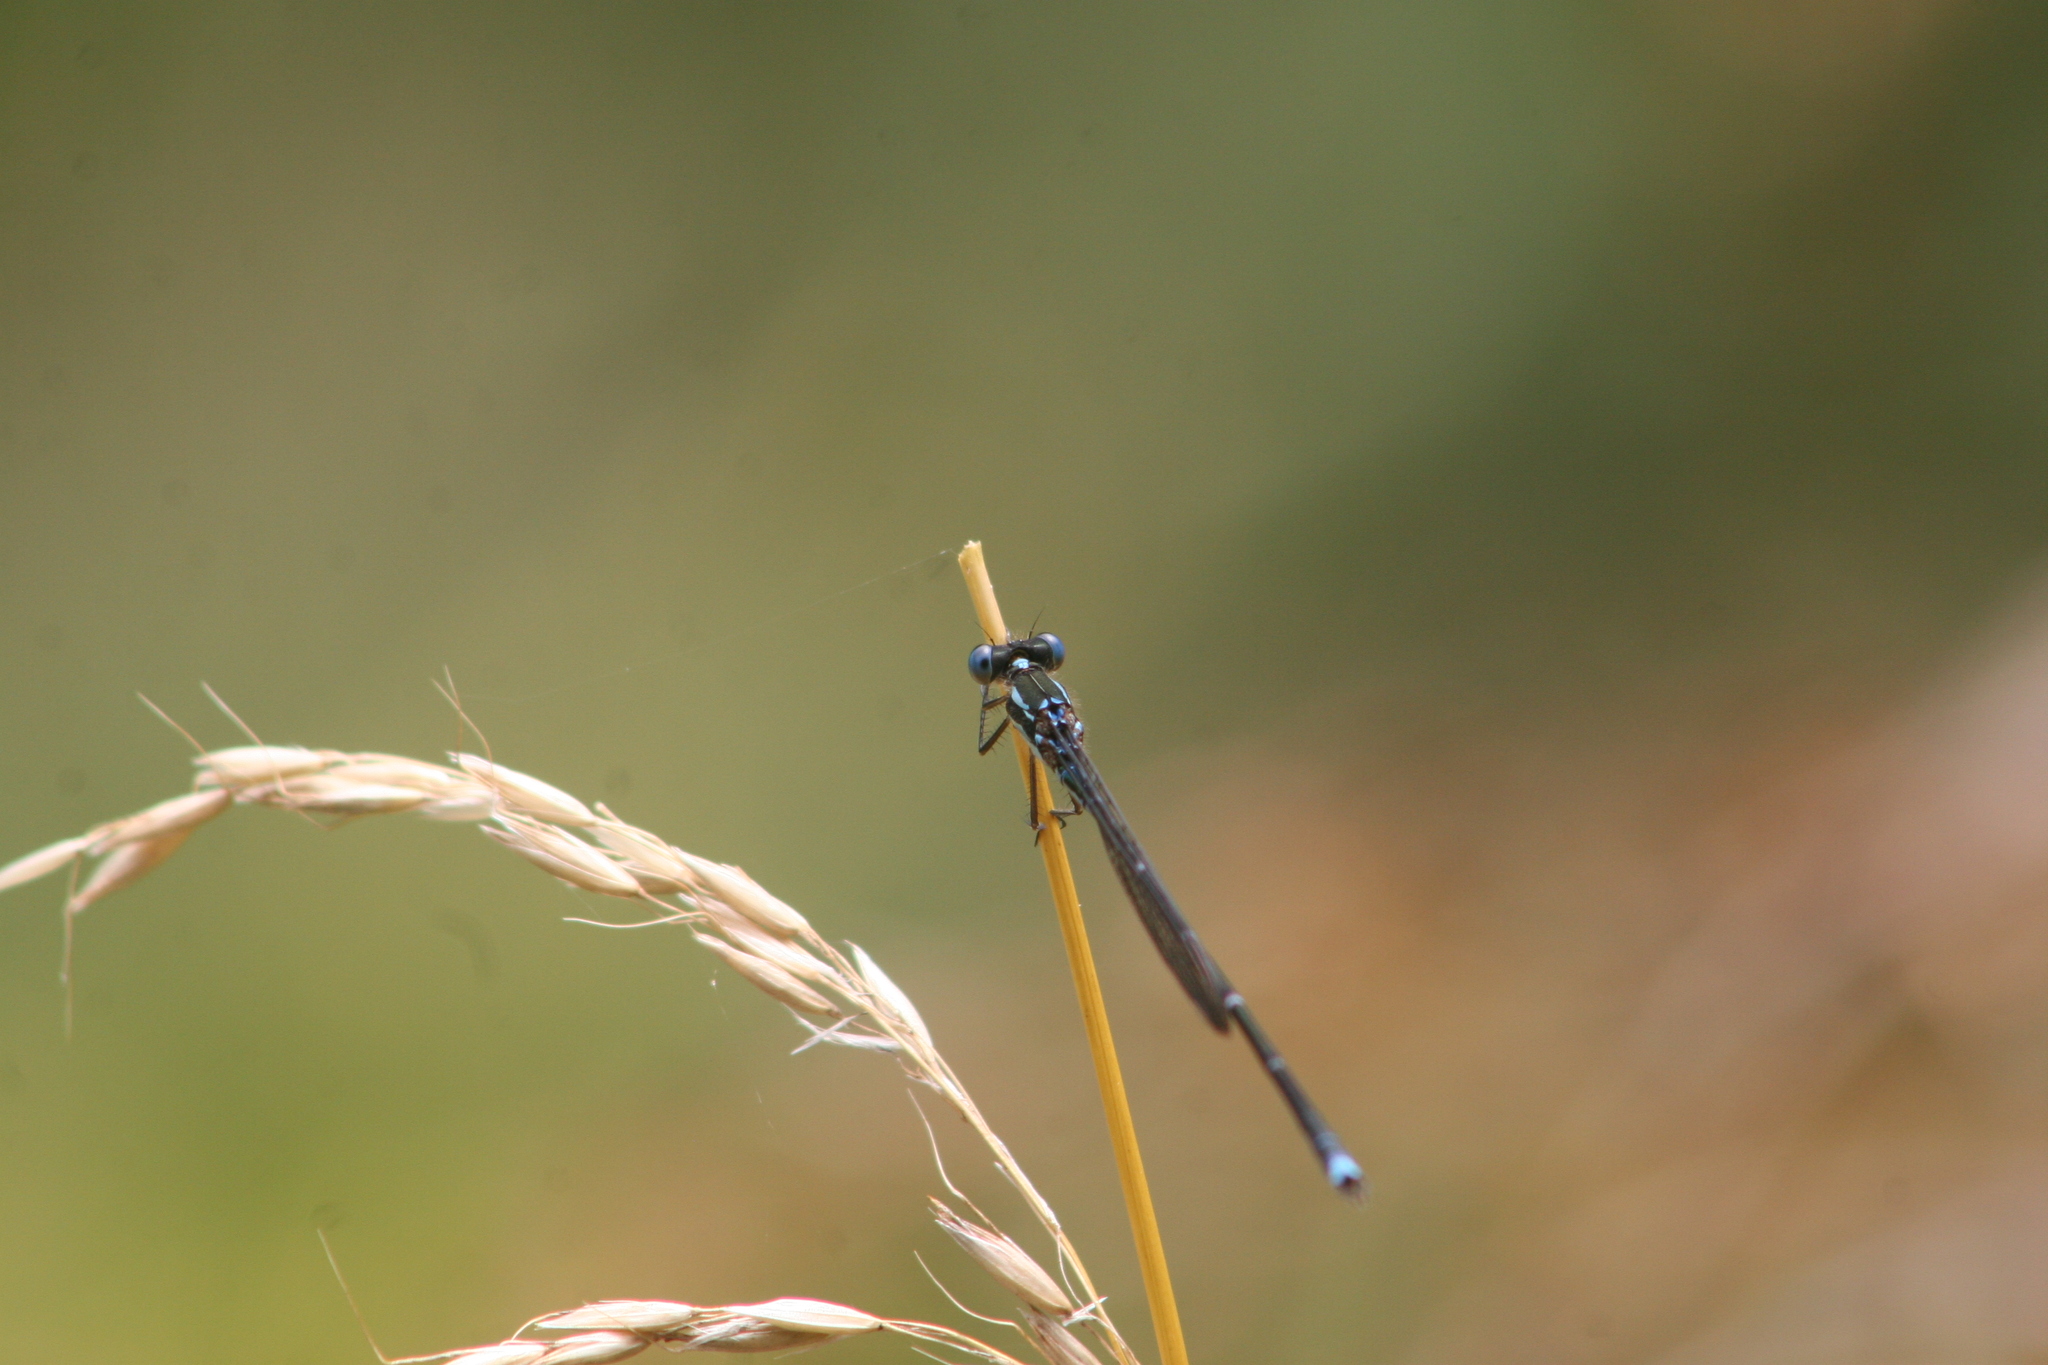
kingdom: Animalia
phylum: Arthropoda
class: Insecta
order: Odonata
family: Lestidae
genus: Austrolestes
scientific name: Austrolestes colensonis
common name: Blue damselfly
